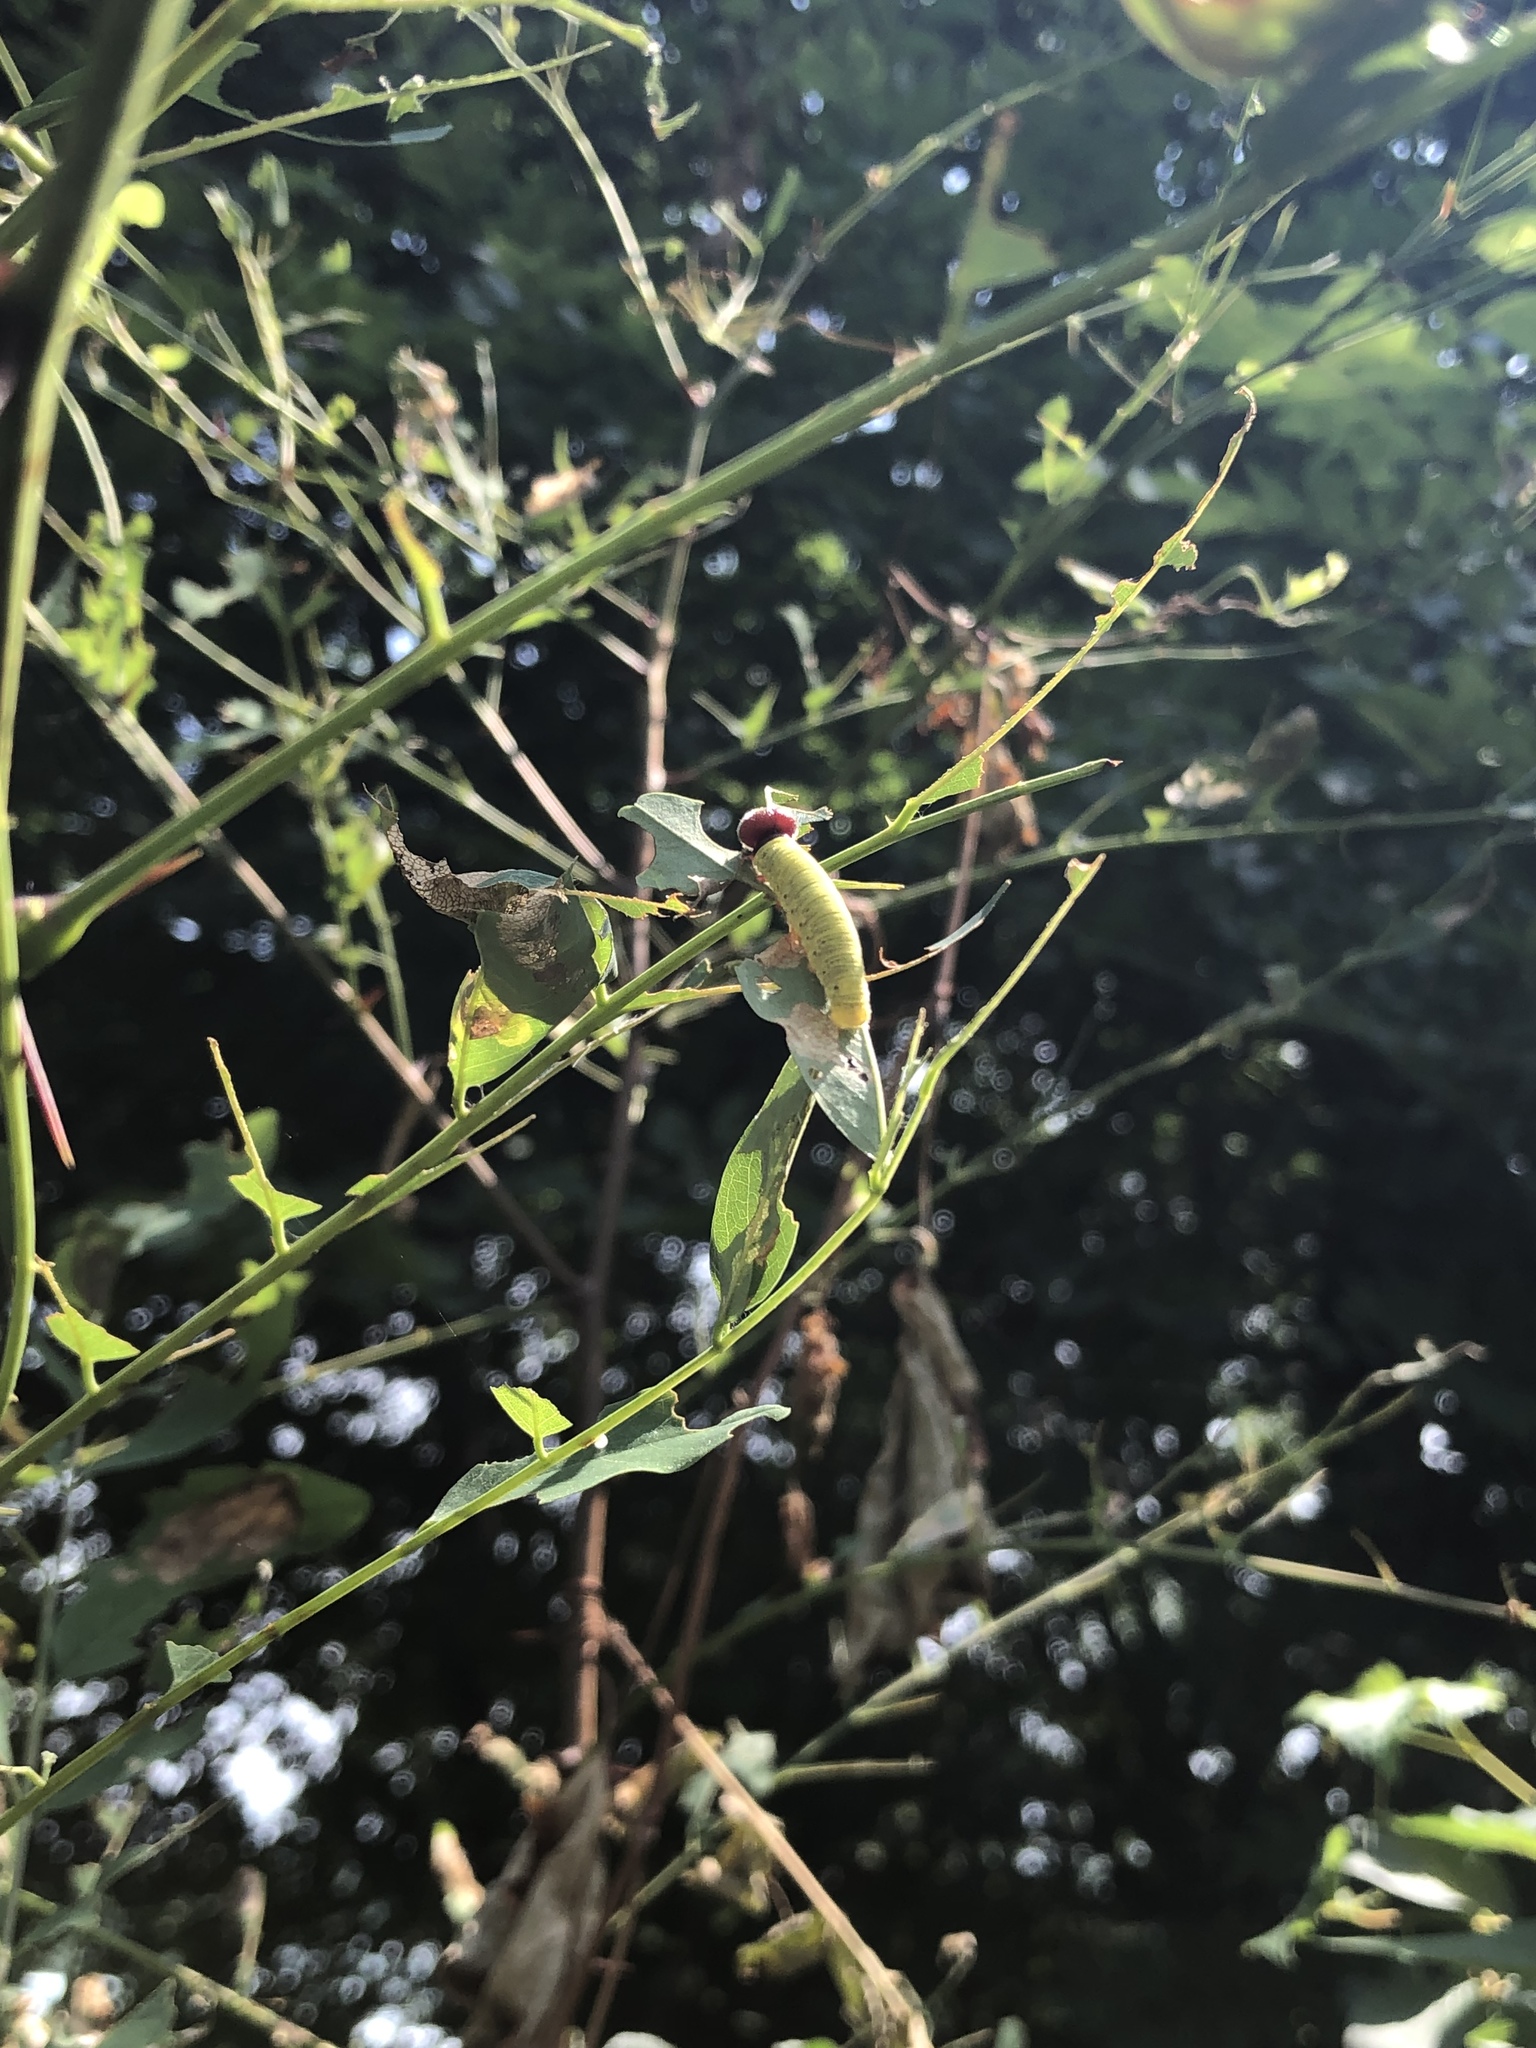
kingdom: Animalia
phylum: Arthropoda
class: Insecta
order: Lepidoptera
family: Hesperiidae
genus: Epargyreus
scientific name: Epargyreus clarus
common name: Silver-spotted skipper
